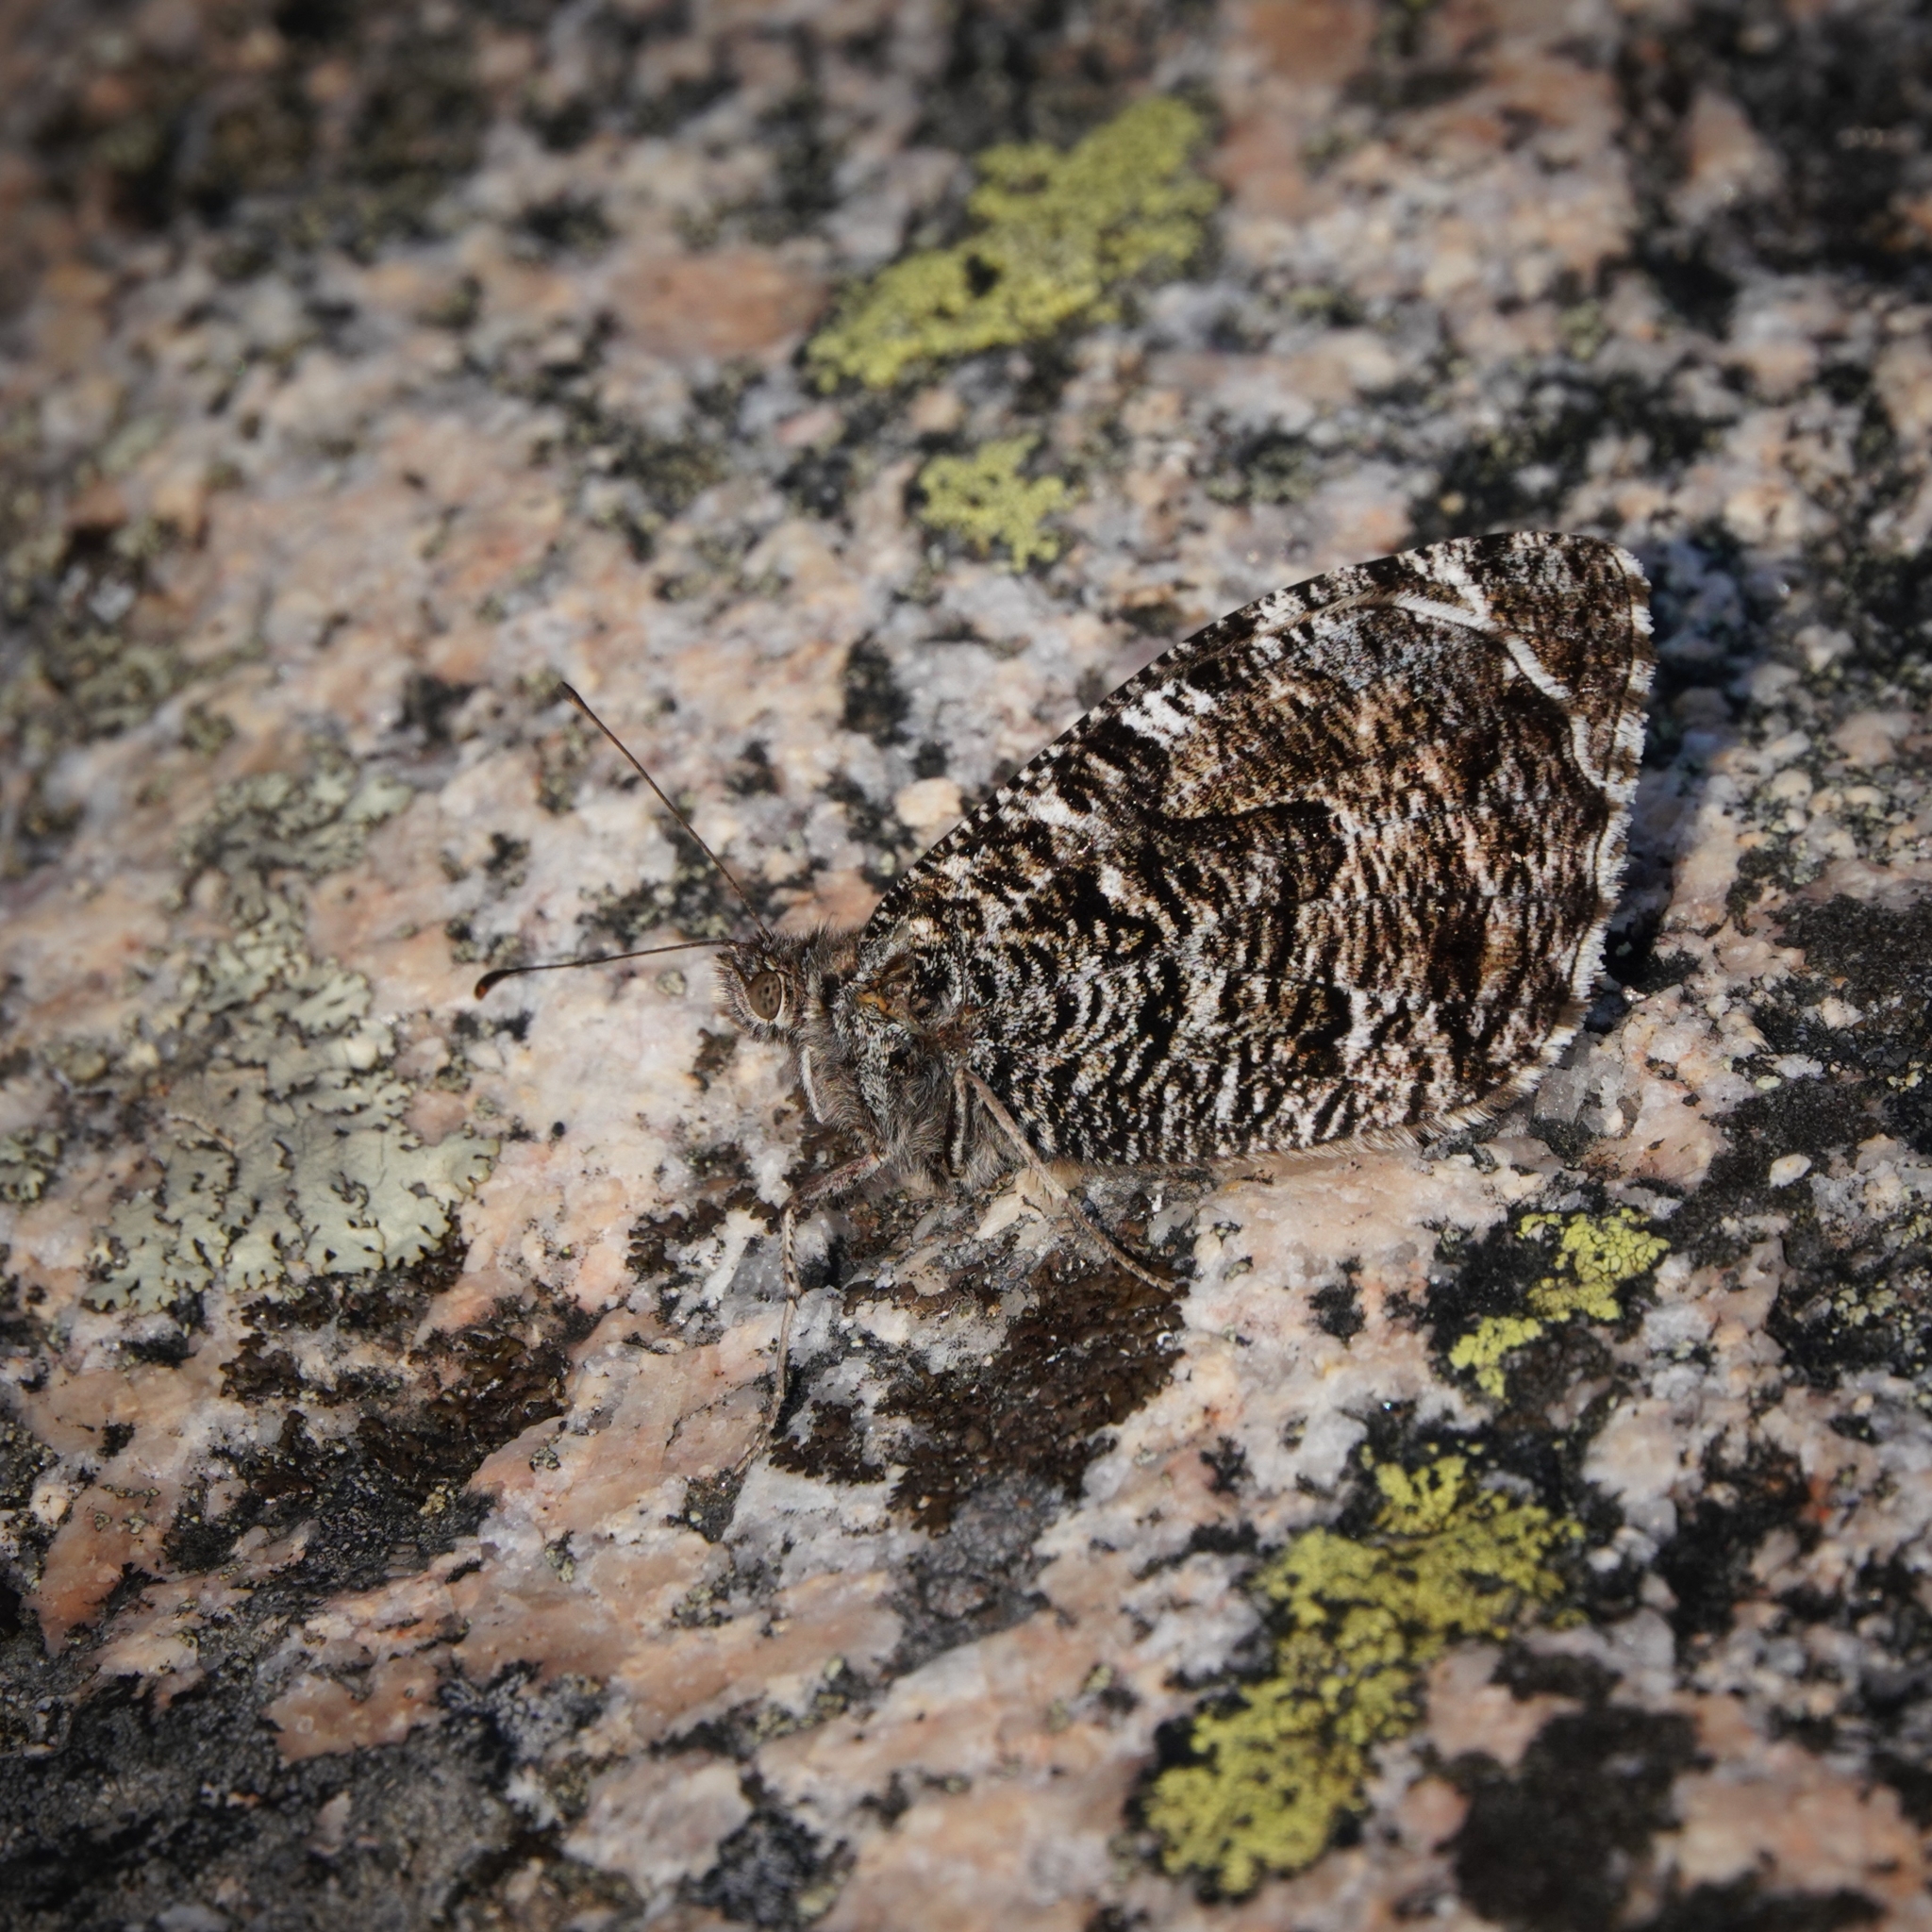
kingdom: Animalia
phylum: Arthropoda
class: Insecta
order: Lepidoptera
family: Nymphalidae
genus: Hipparchia
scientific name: Hipparchia semele
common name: Grayling
